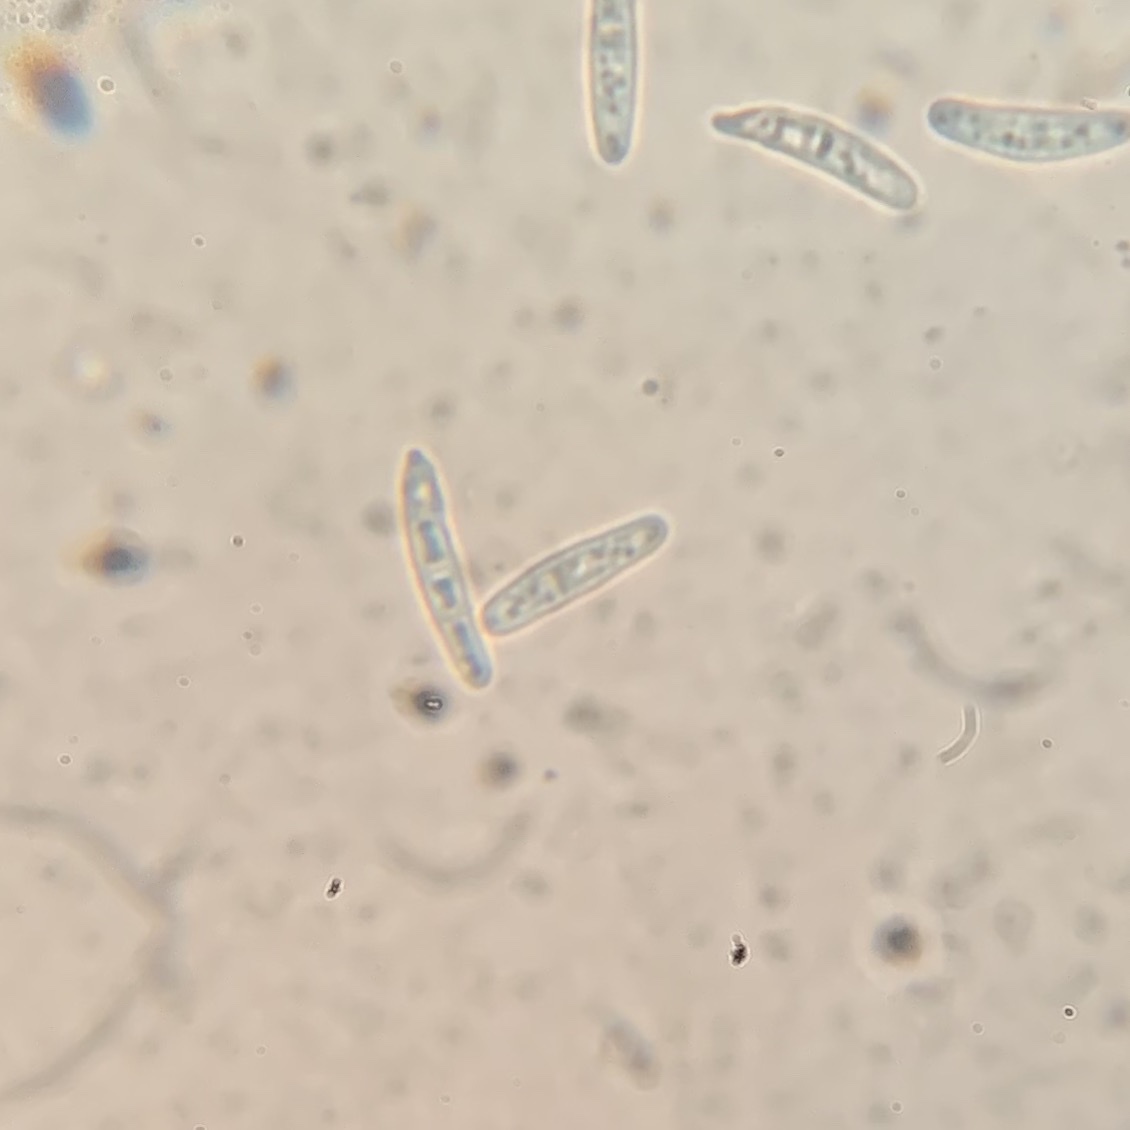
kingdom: Fungi
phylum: Ascomycota
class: Arthoniomycetes
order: Arthoniales
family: Roccellaceae
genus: Sigridea
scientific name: Sigridea californica
